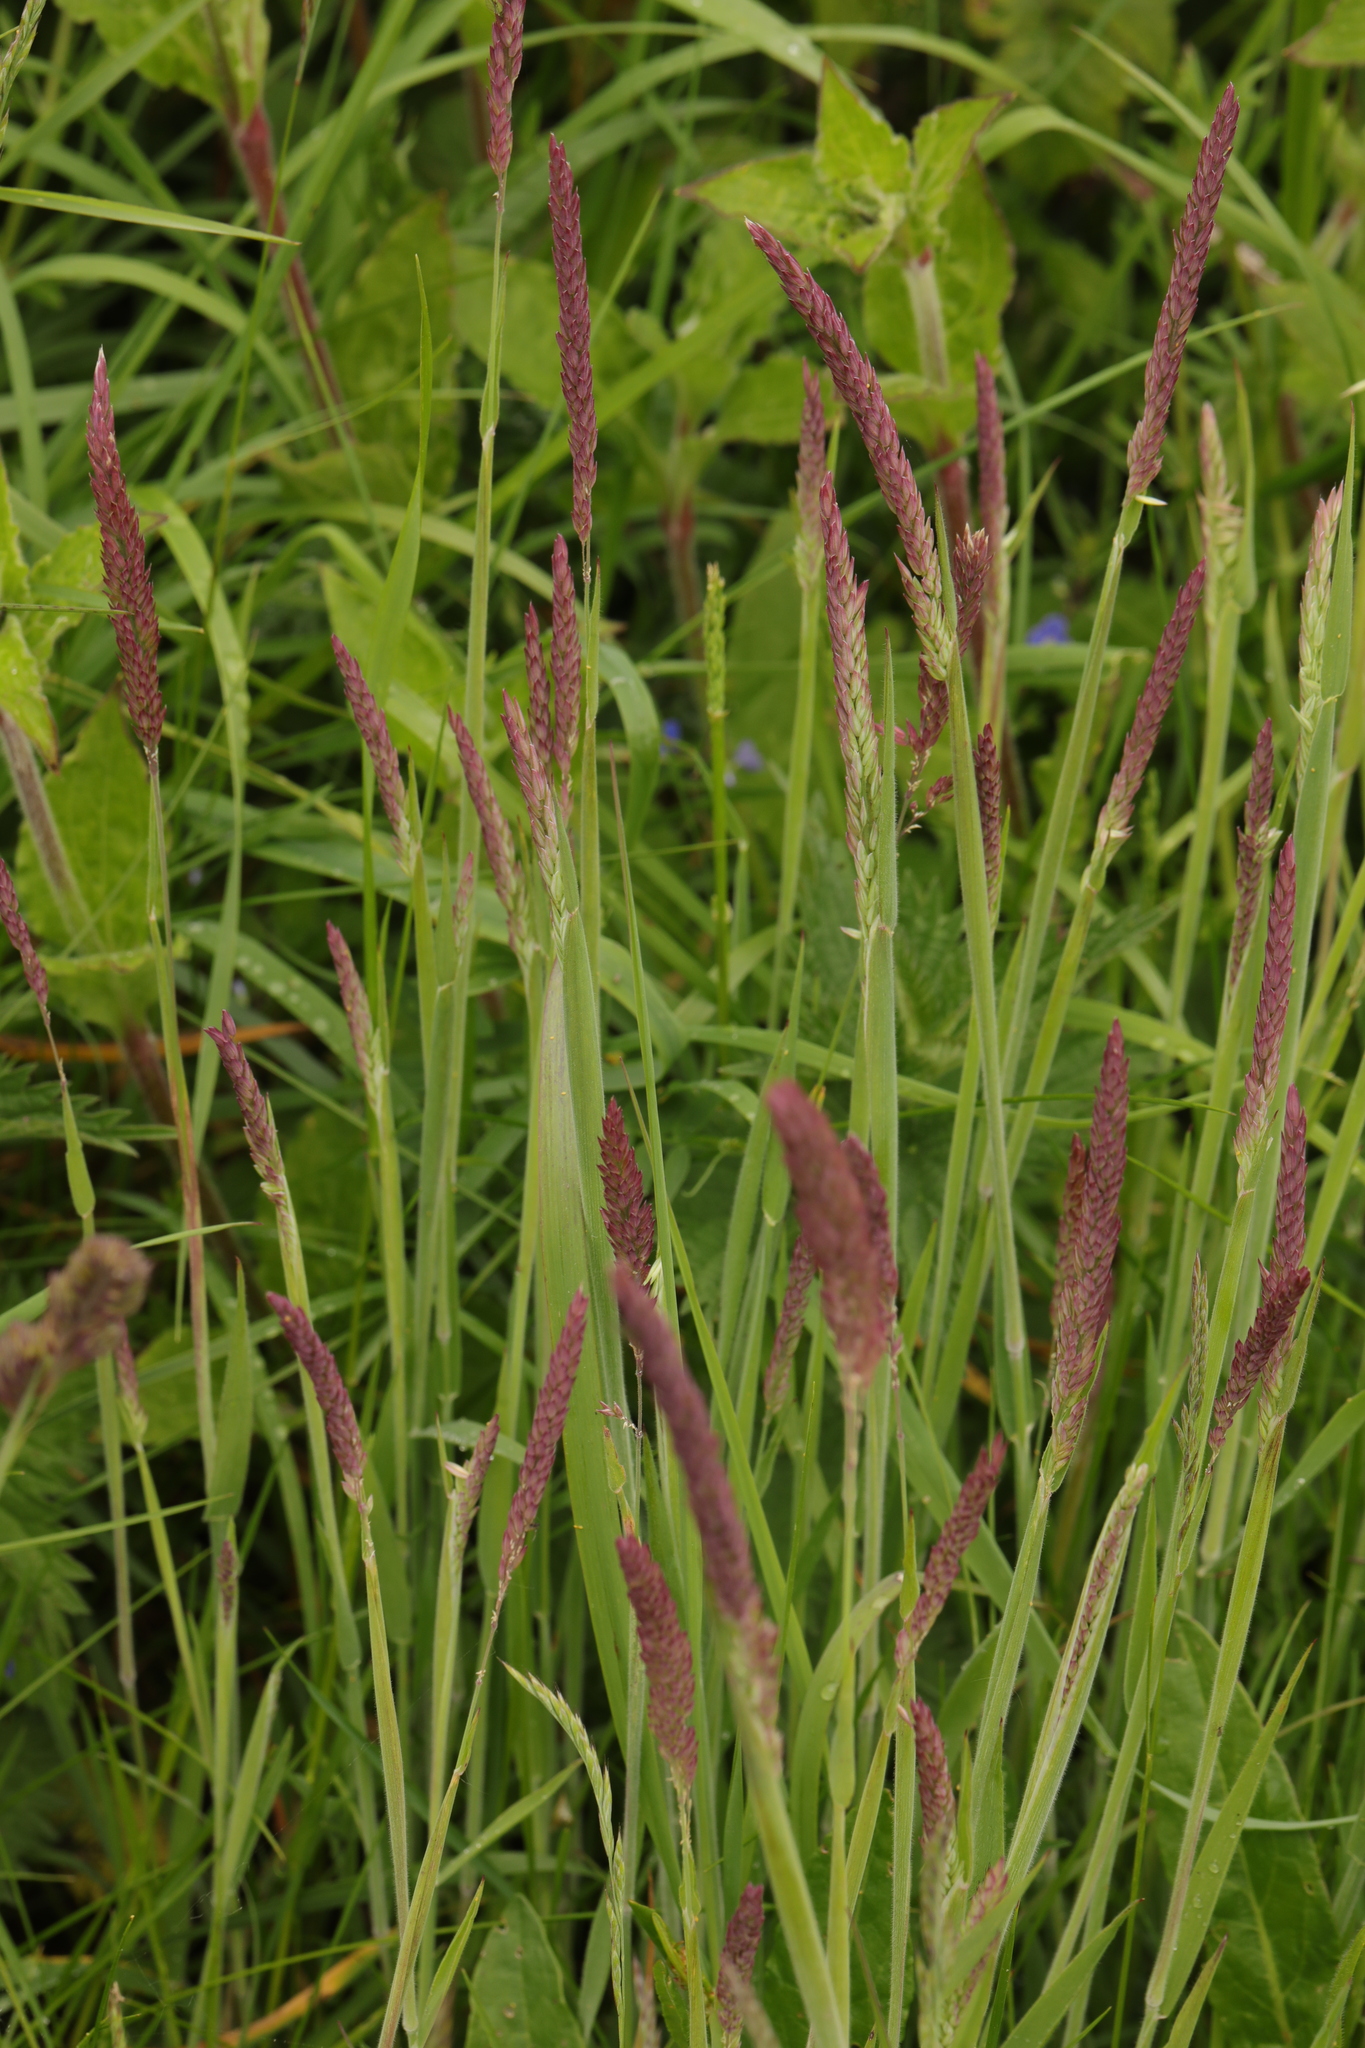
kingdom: Plantae
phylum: Tracheophyta
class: Liliopsida
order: Poales
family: Poaceae
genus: Holcus
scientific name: Holcus lanatus
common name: Yorkshire-fog
